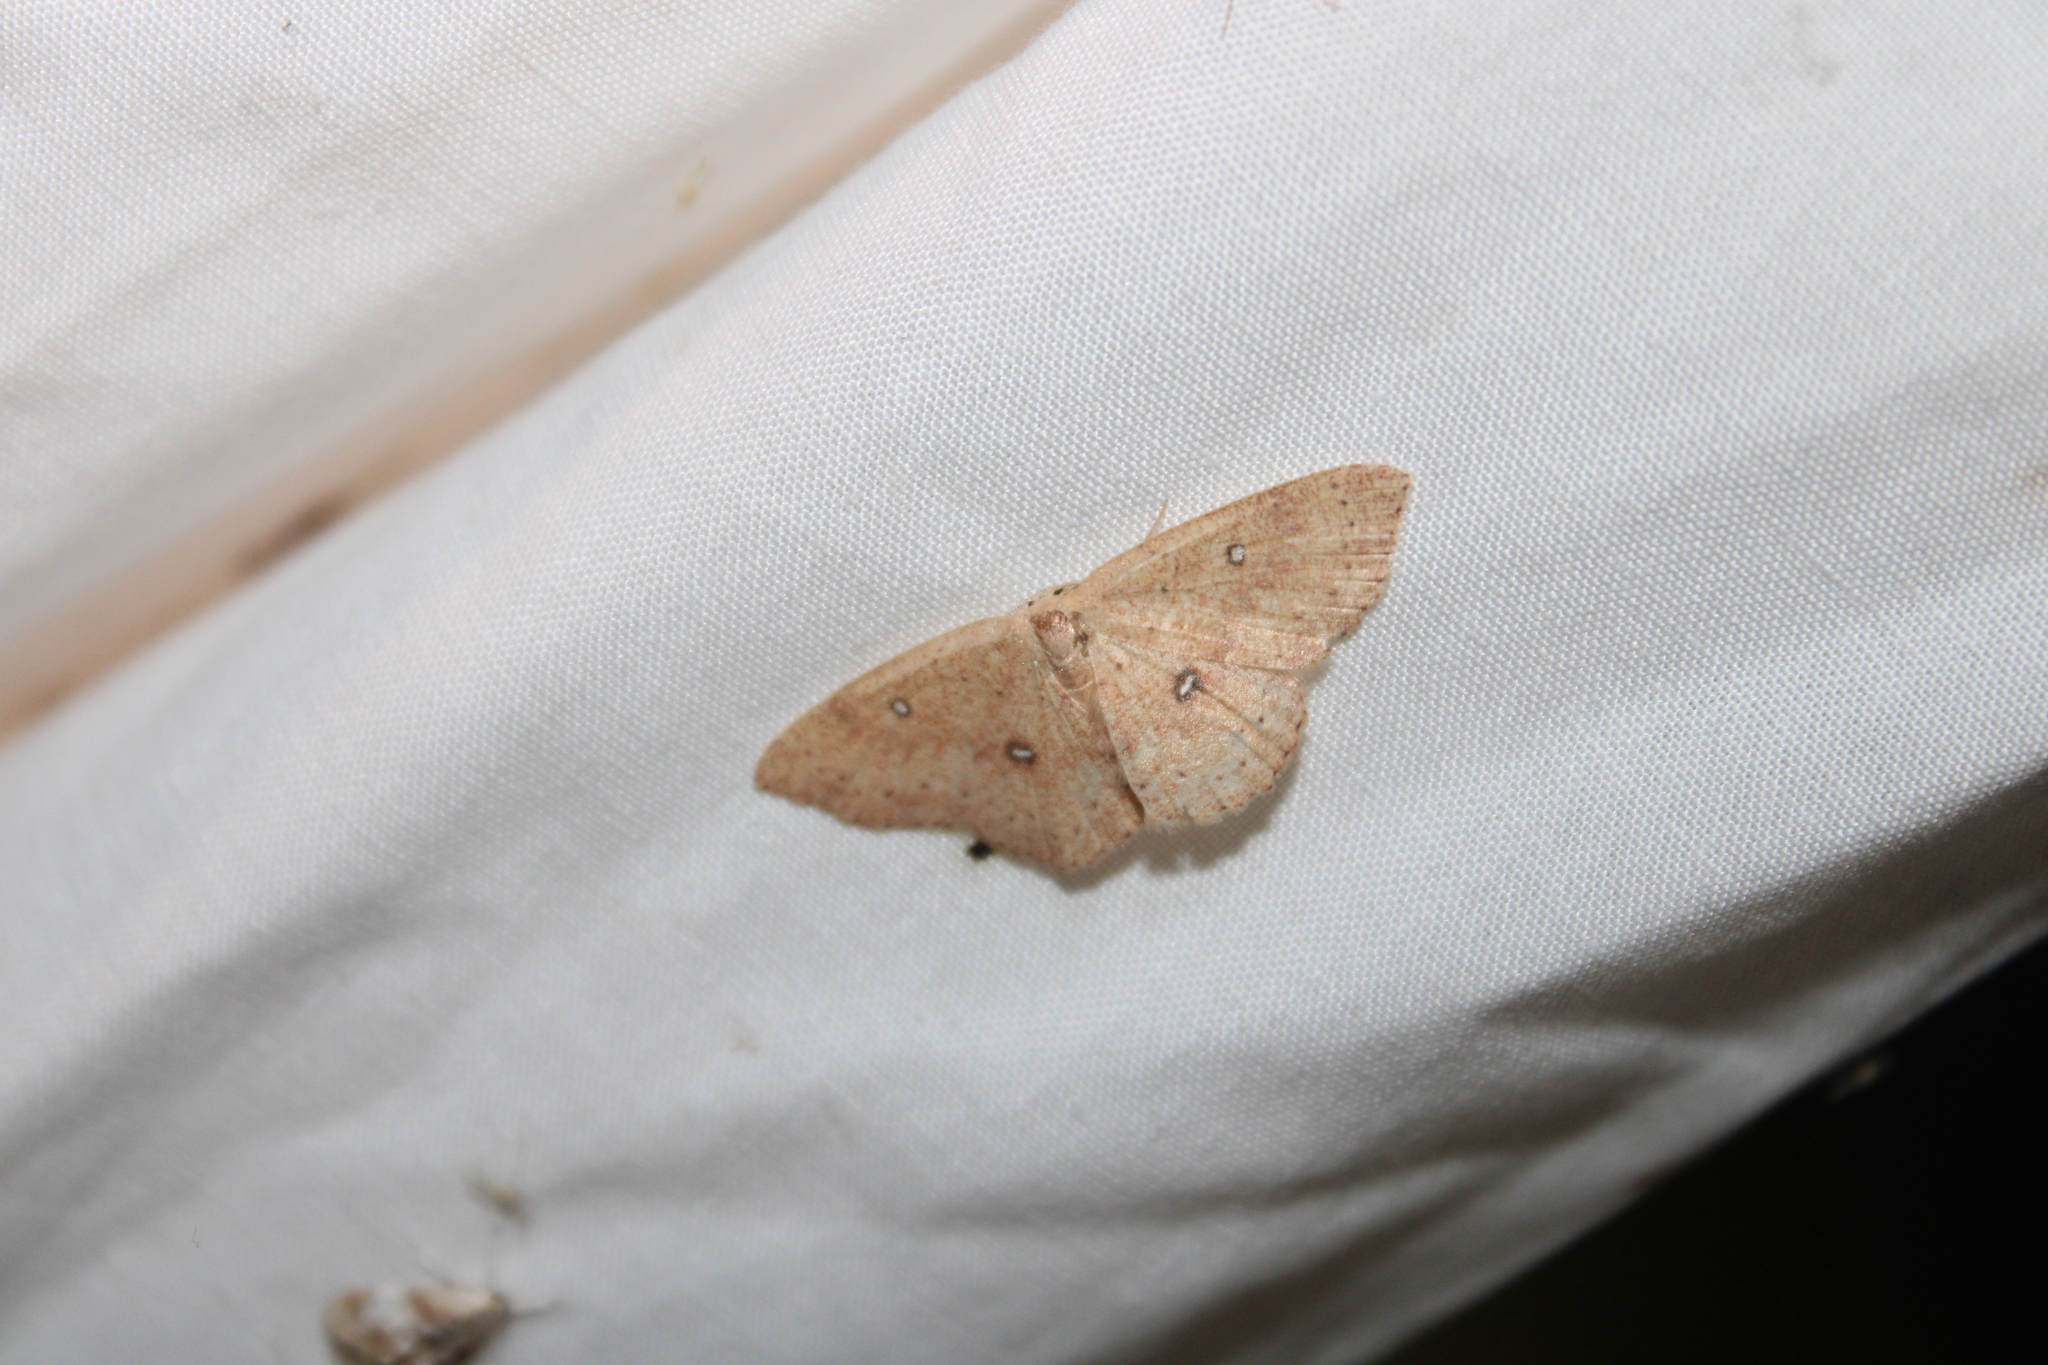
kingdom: Animalia
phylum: Arthropoda
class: Insecta
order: Lepidoptera
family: Geometridae
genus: Cyclophora
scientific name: Cyclophora packardi
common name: Packard's wave
